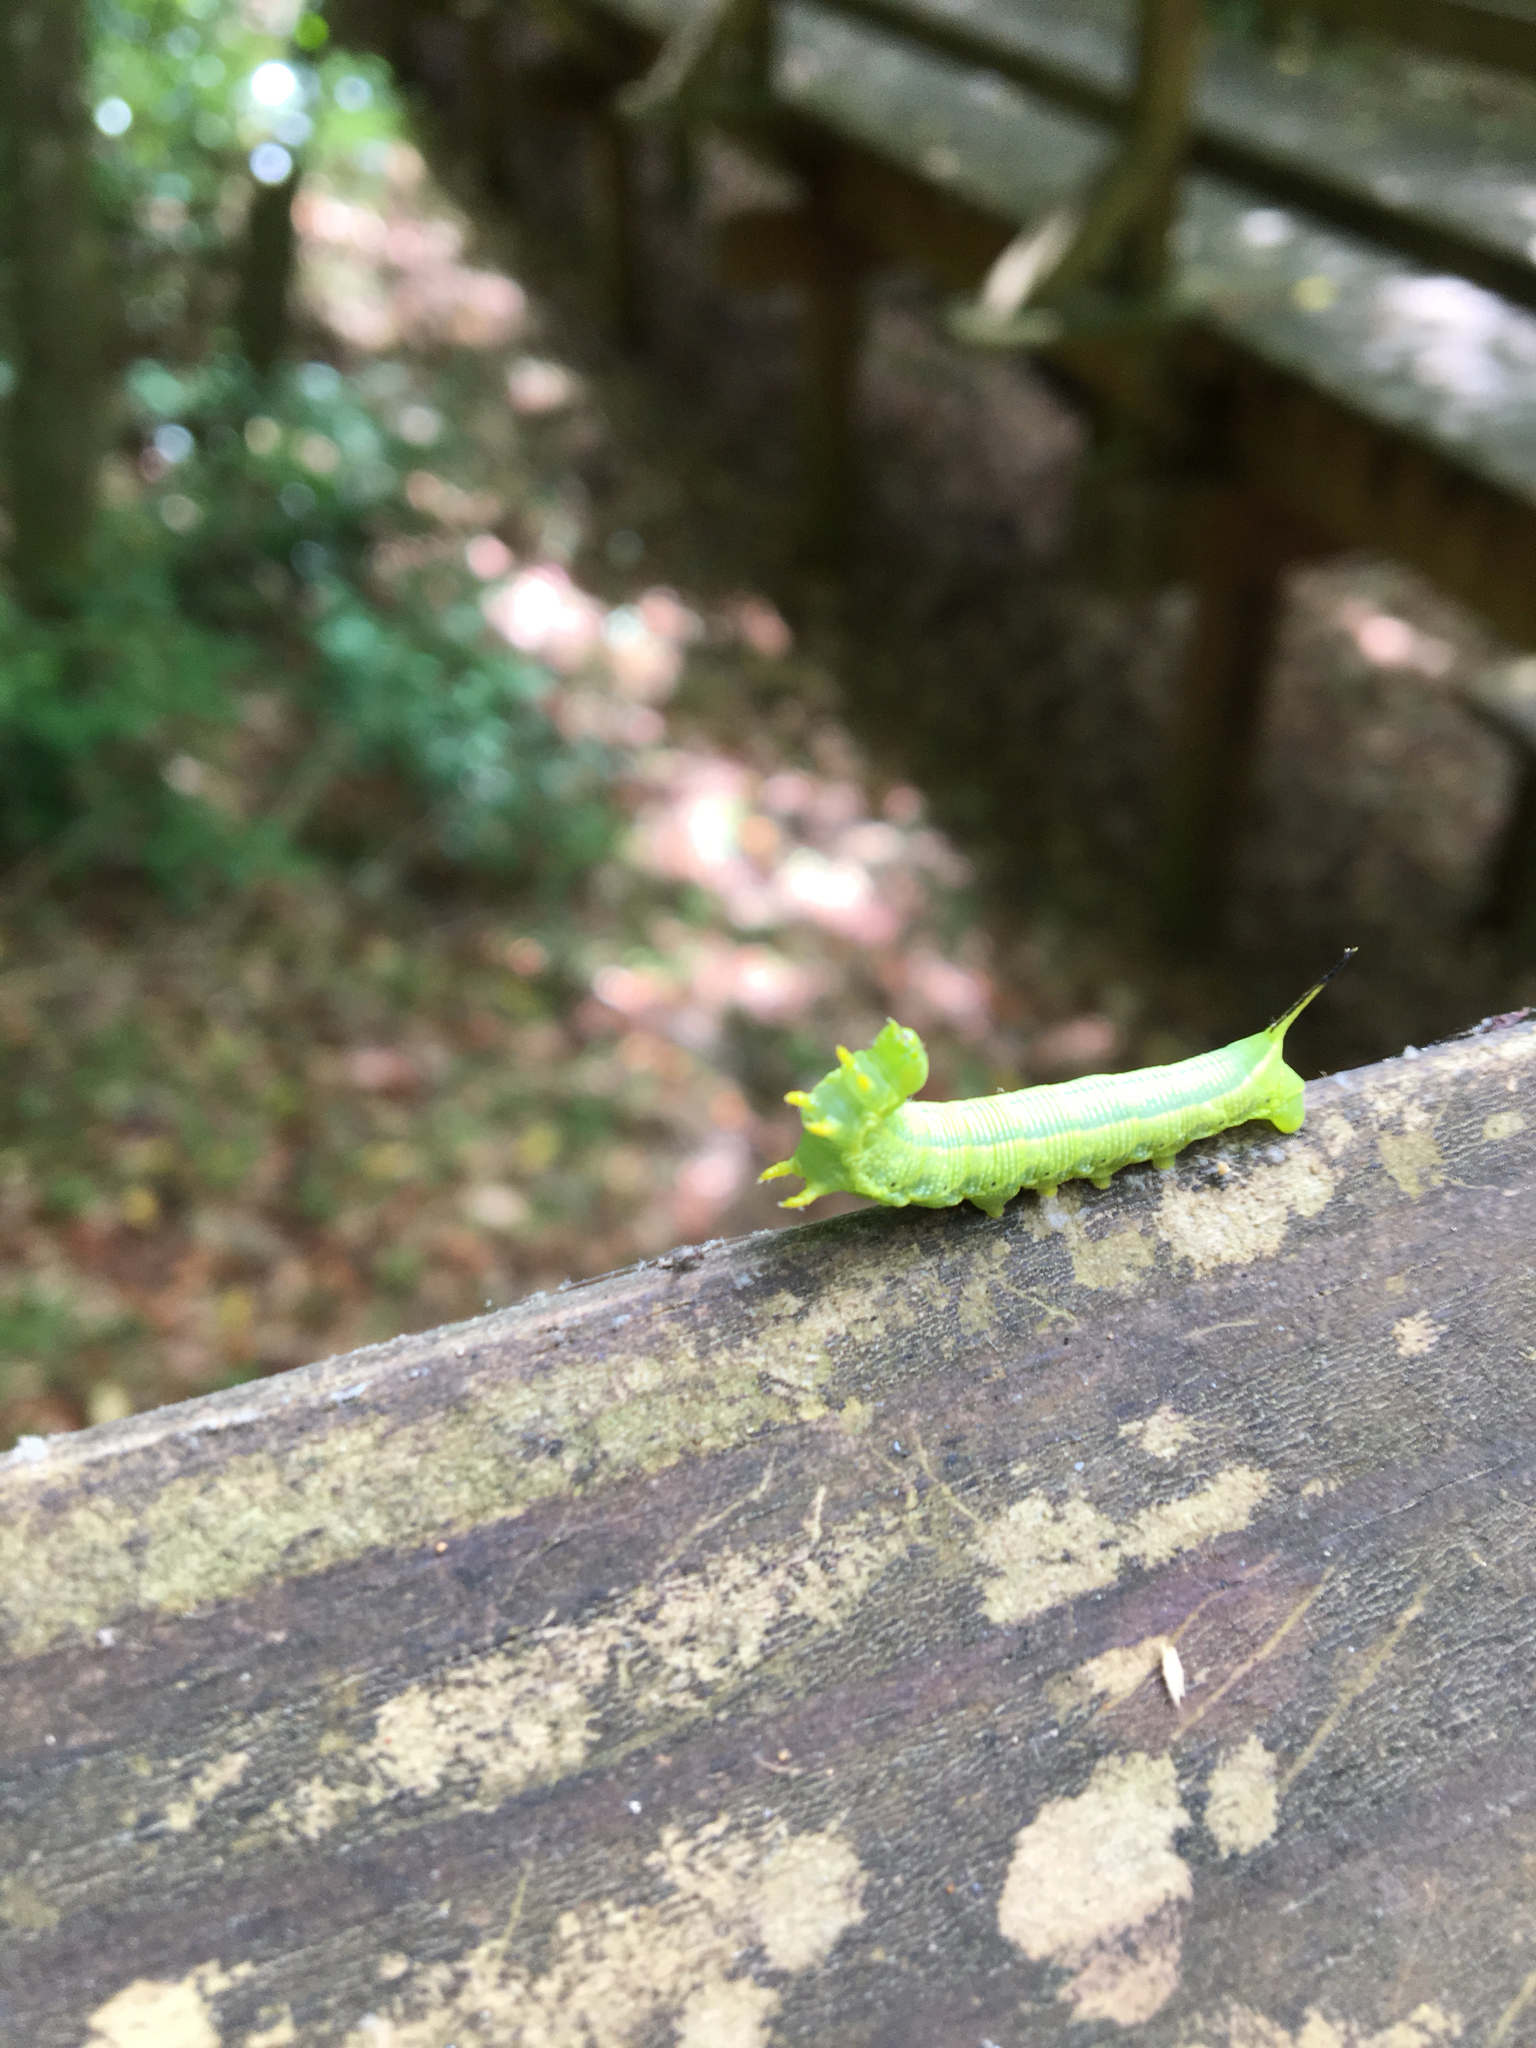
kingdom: Animalia
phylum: Arthropoda
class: Insecta
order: Lepidoptera
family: Sphingidae
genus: Deidamia
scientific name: Deidamia inscriptum
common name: Lettered sphinx
